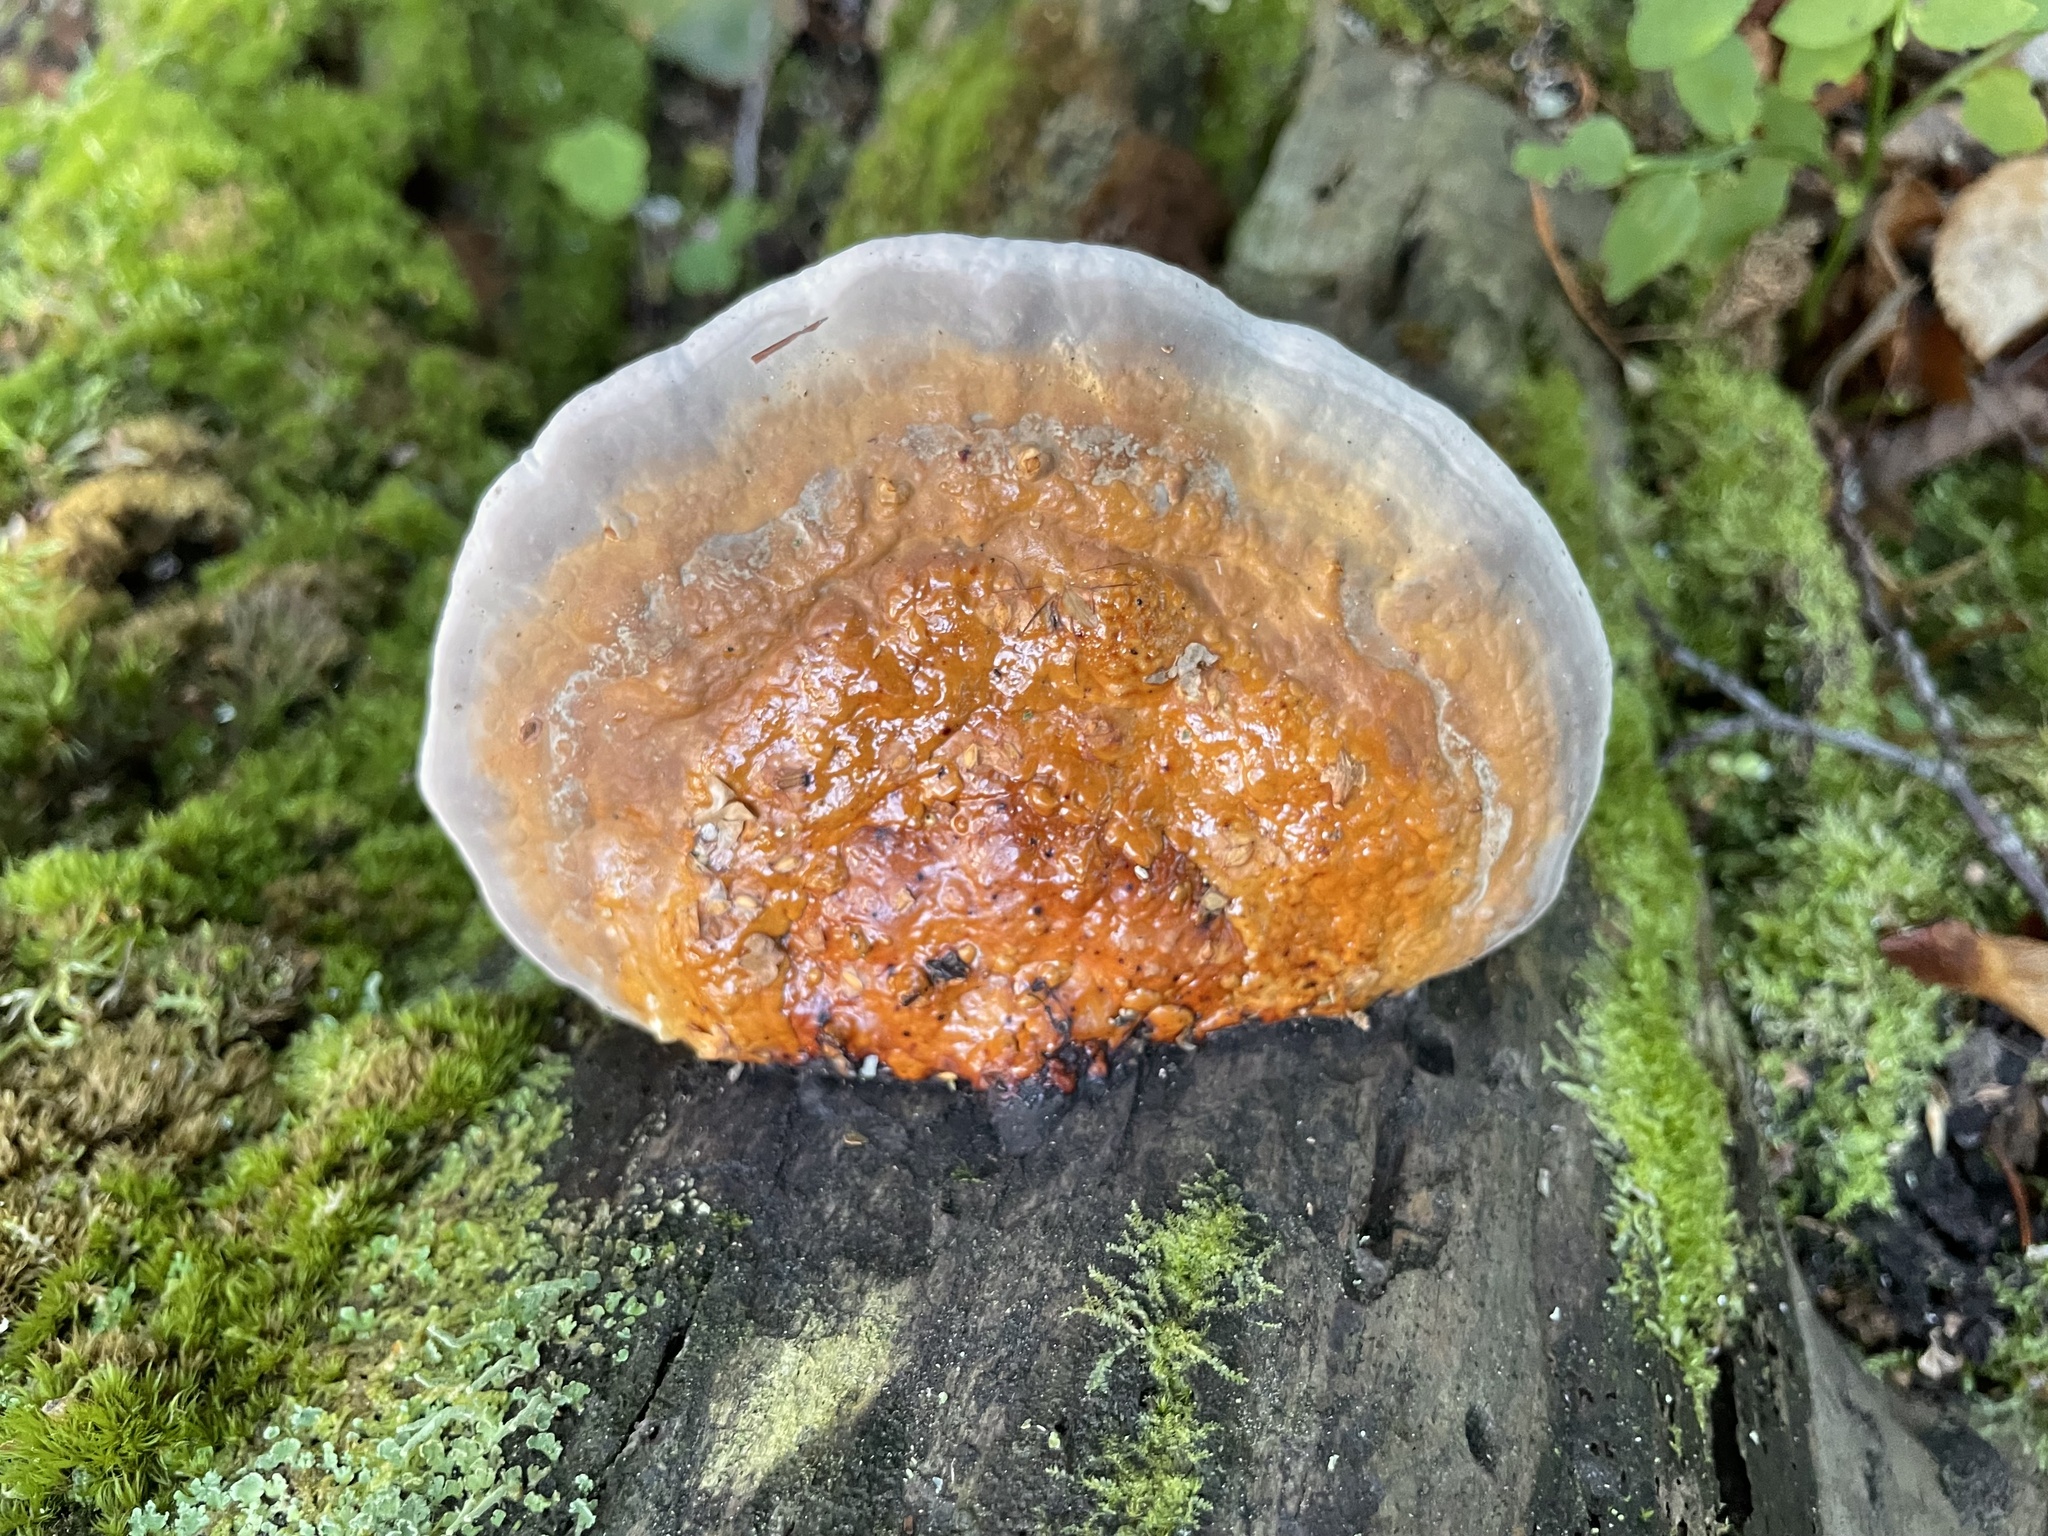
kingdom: Fungi
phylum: Basidiomycota
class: Agaricomycetes
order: Polyporales
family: Fomitopsidaceae
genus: Fomitopsis
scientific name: Fomitopsis pinicola
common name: Red-belted bracket
